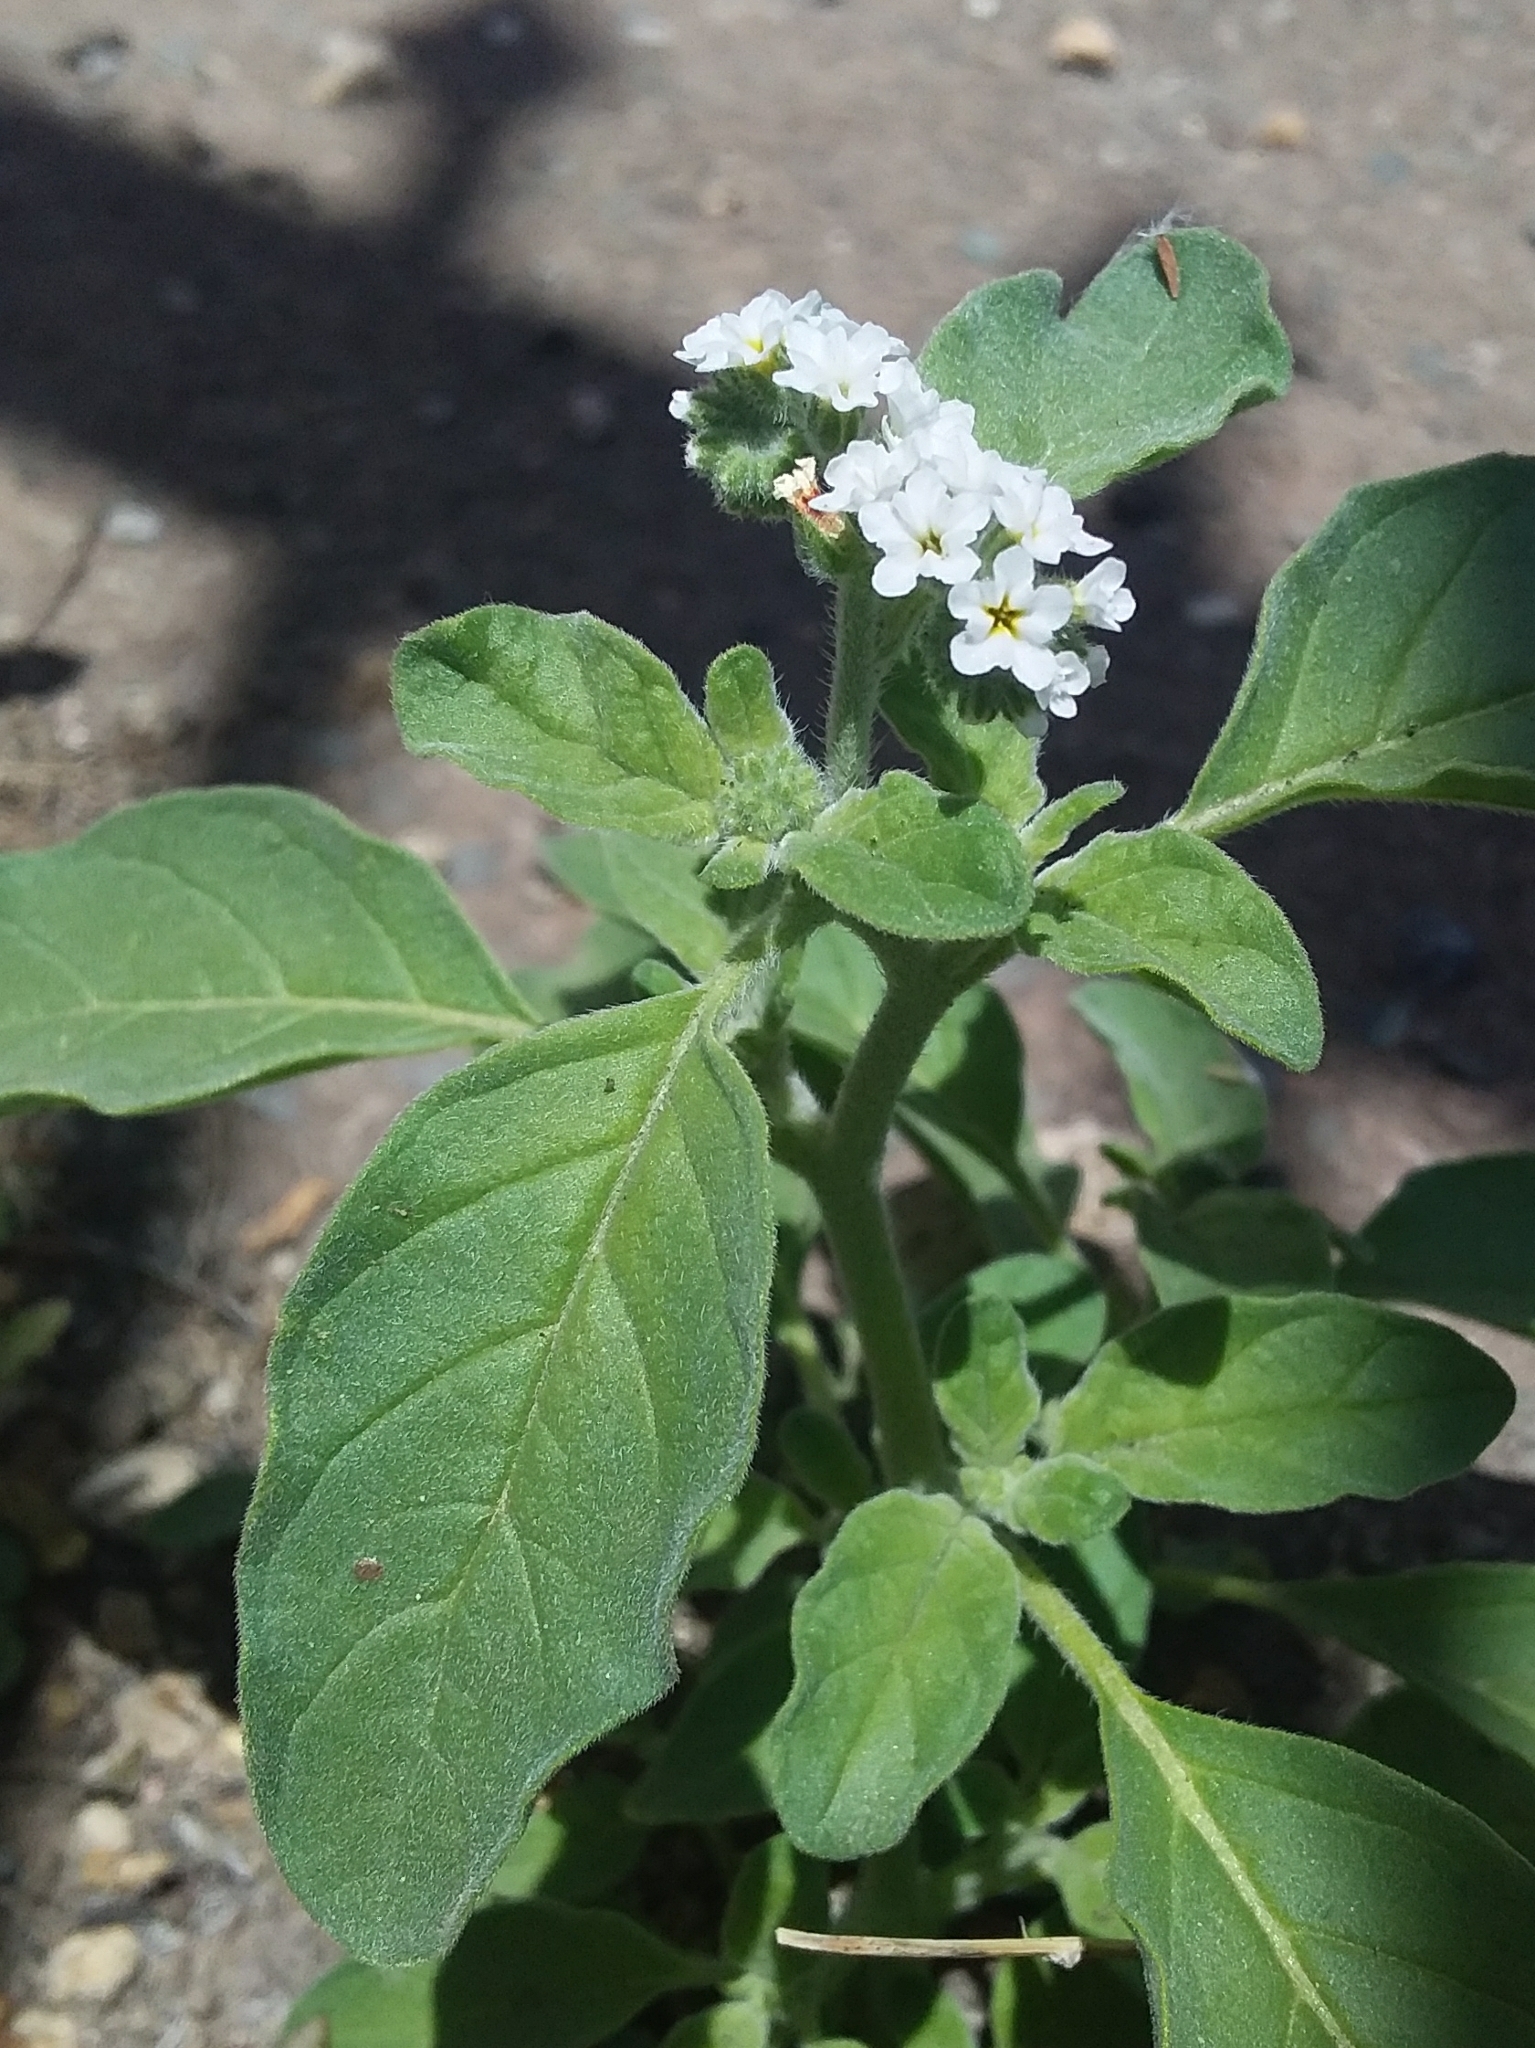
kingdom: Plantae
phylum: Tracheophyta
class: Magnoliopsida
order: Boraginales
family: Heliotropiaceae
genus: Heliotropium
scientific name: Heliotropium europaeum
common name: European heliotrope
